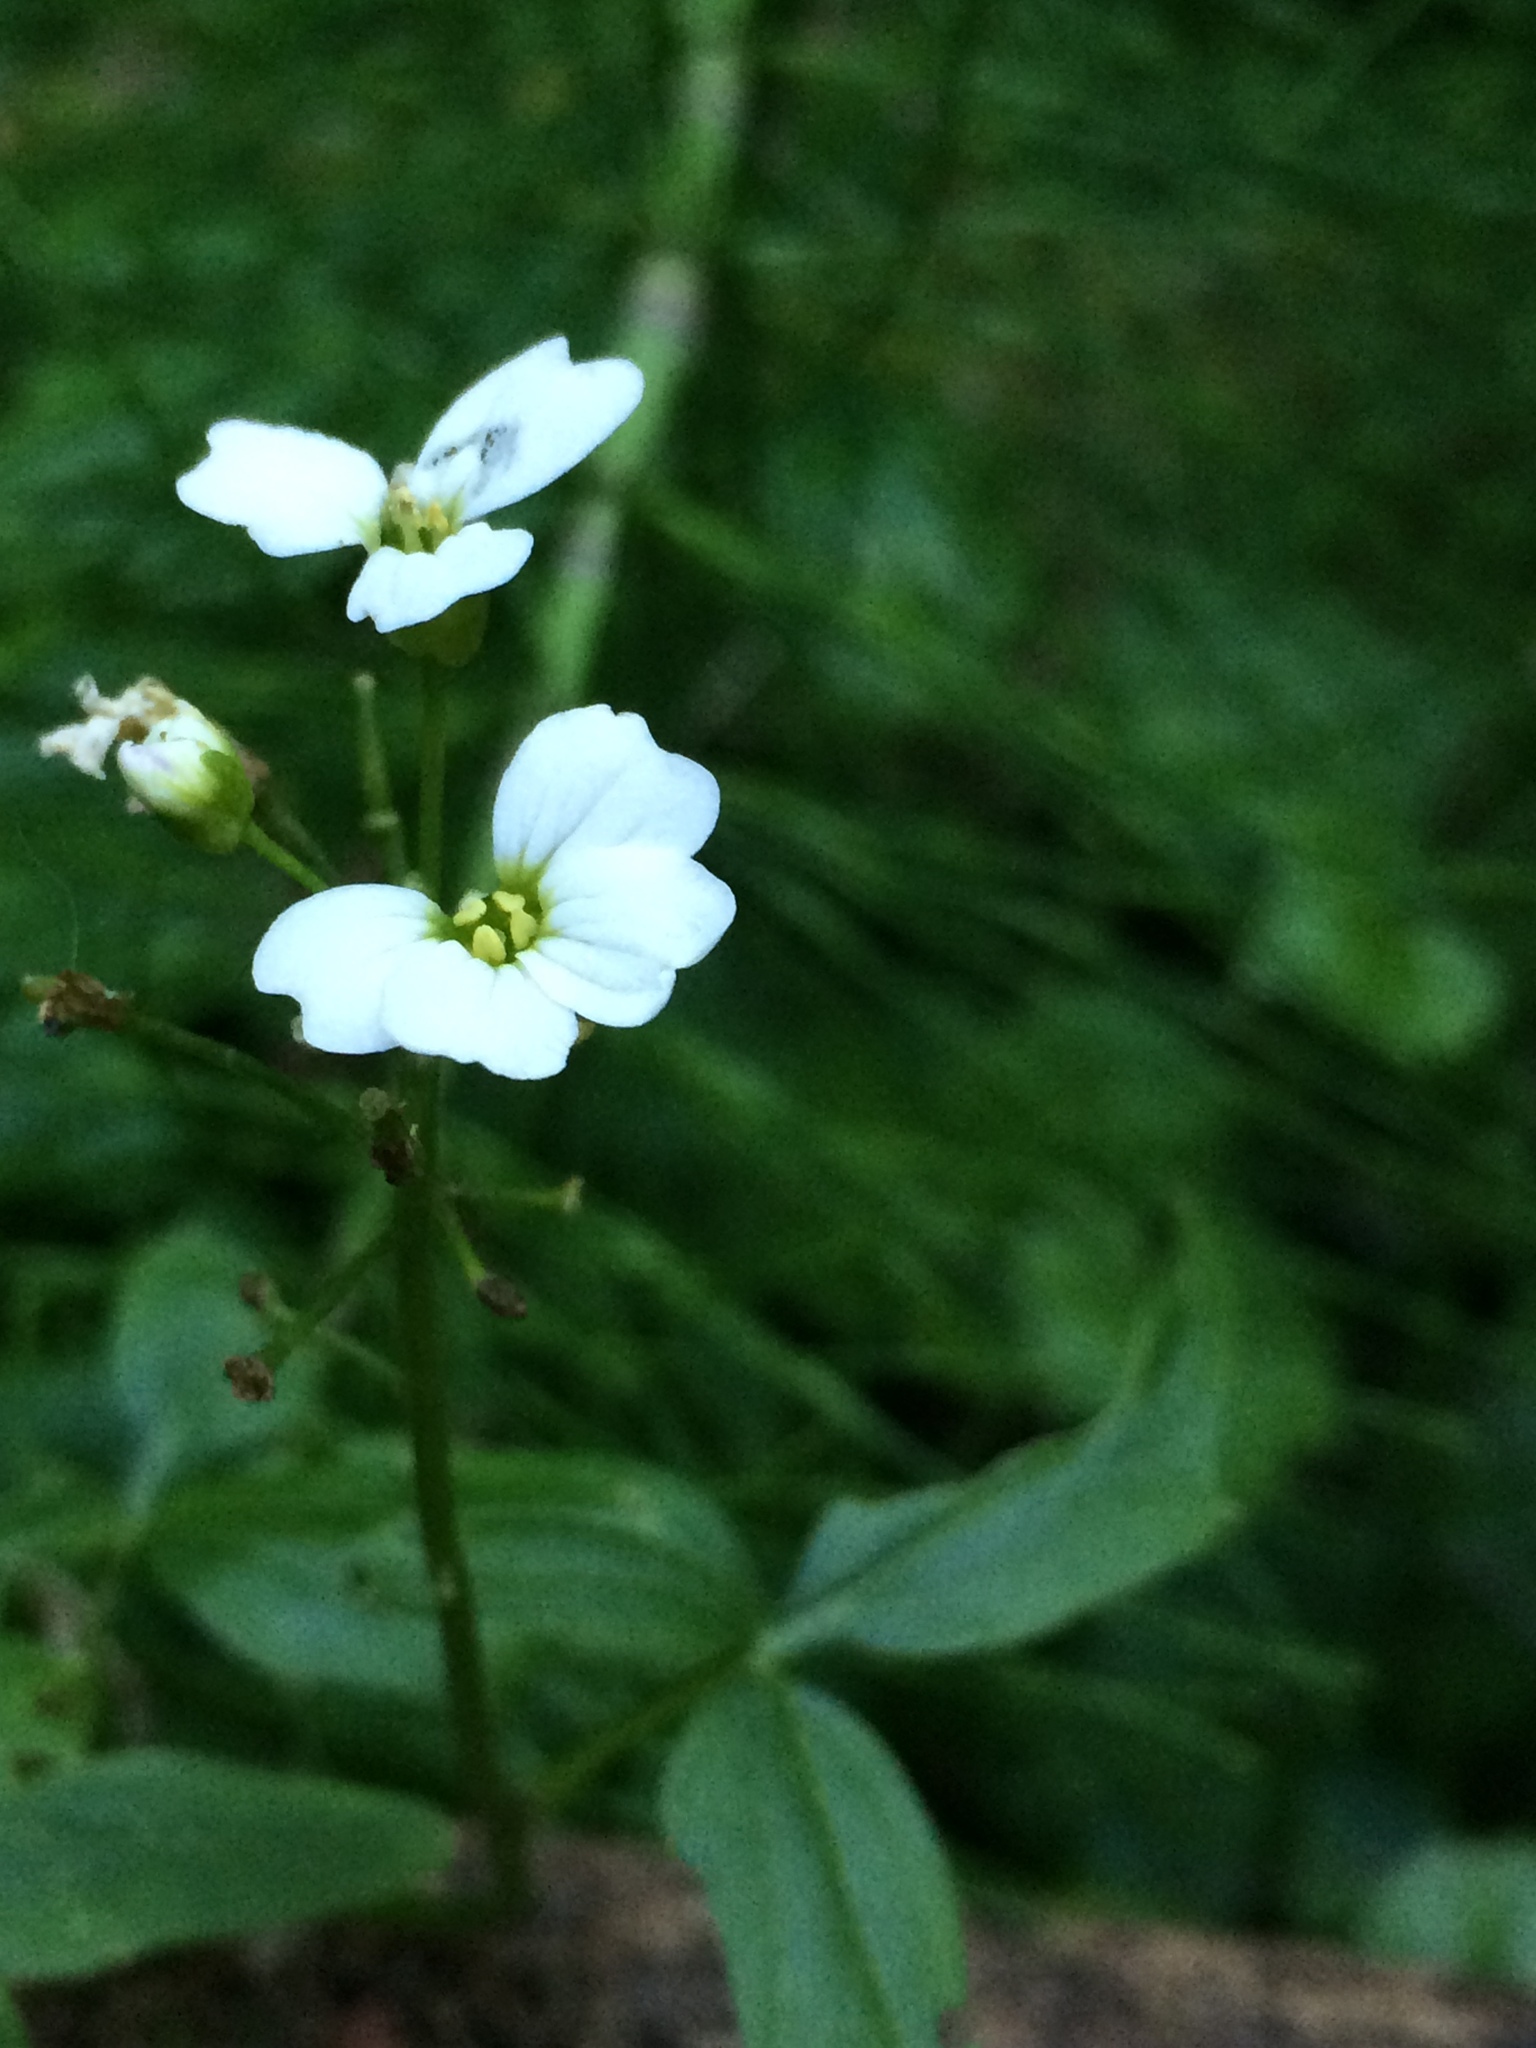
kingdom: Plantae
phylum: Tracheophyta
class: Magnoliopsida
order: Brassicales
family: Brassicaceae
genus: Cardamine
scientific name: Cardamine angulata
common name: Angled bittercress
